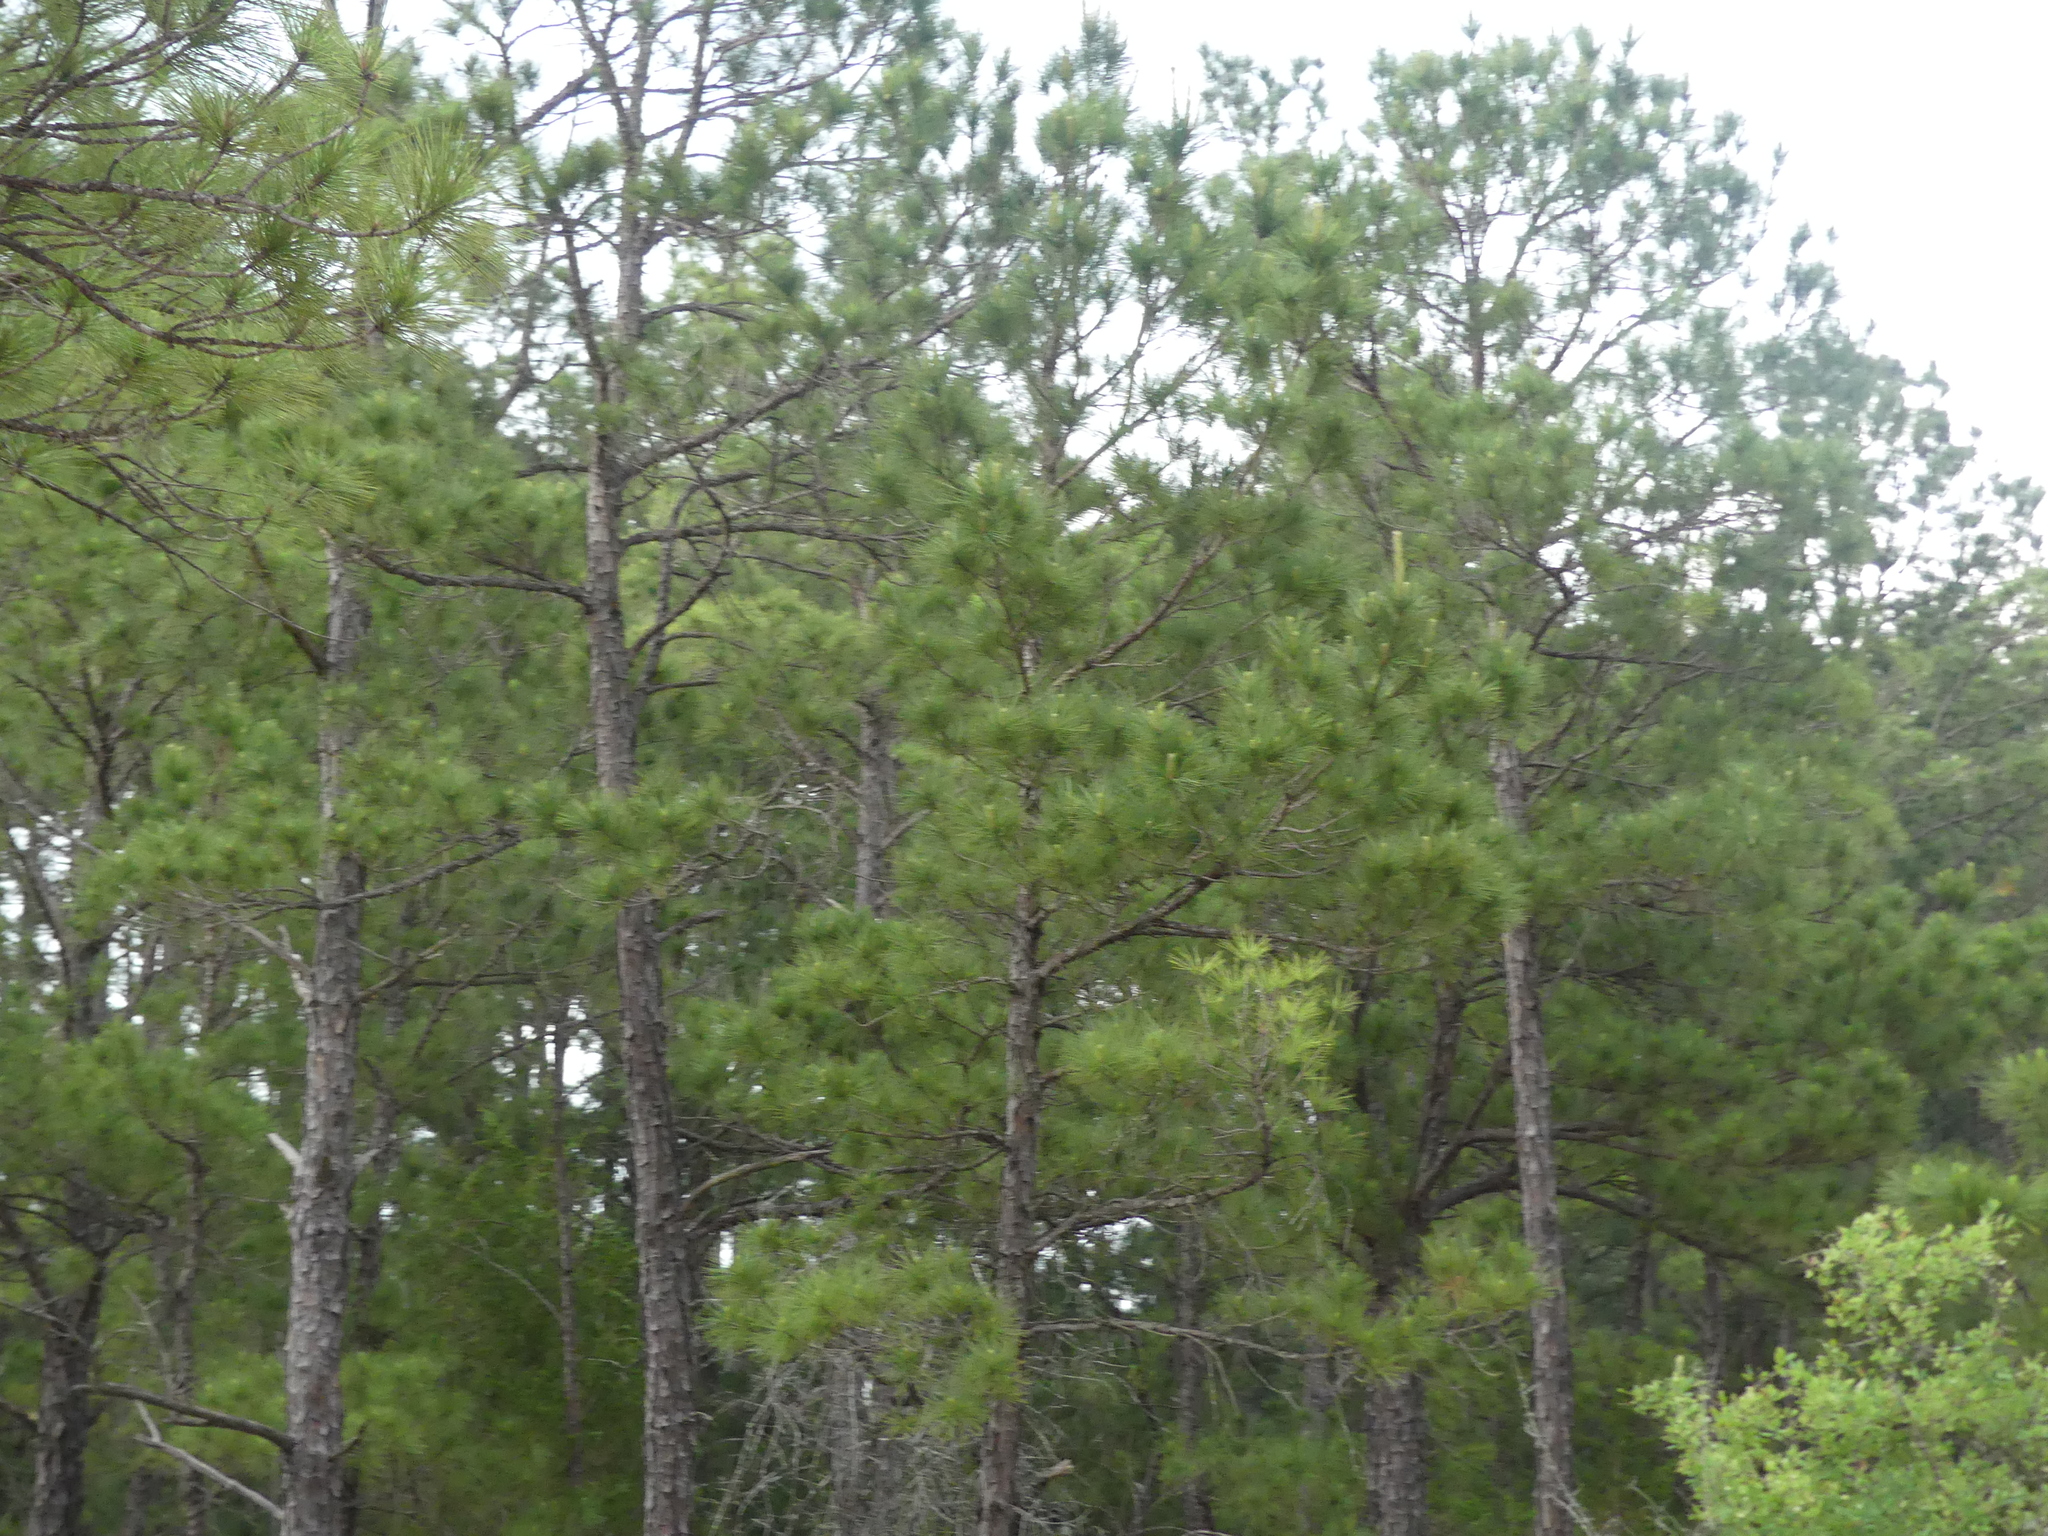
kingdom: Plantae
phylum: Tracheophyta
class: Pinopsida
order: Pinales
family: Pinaceae
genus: Pinus
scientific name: Pinus taeda
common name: Loblolly pine
